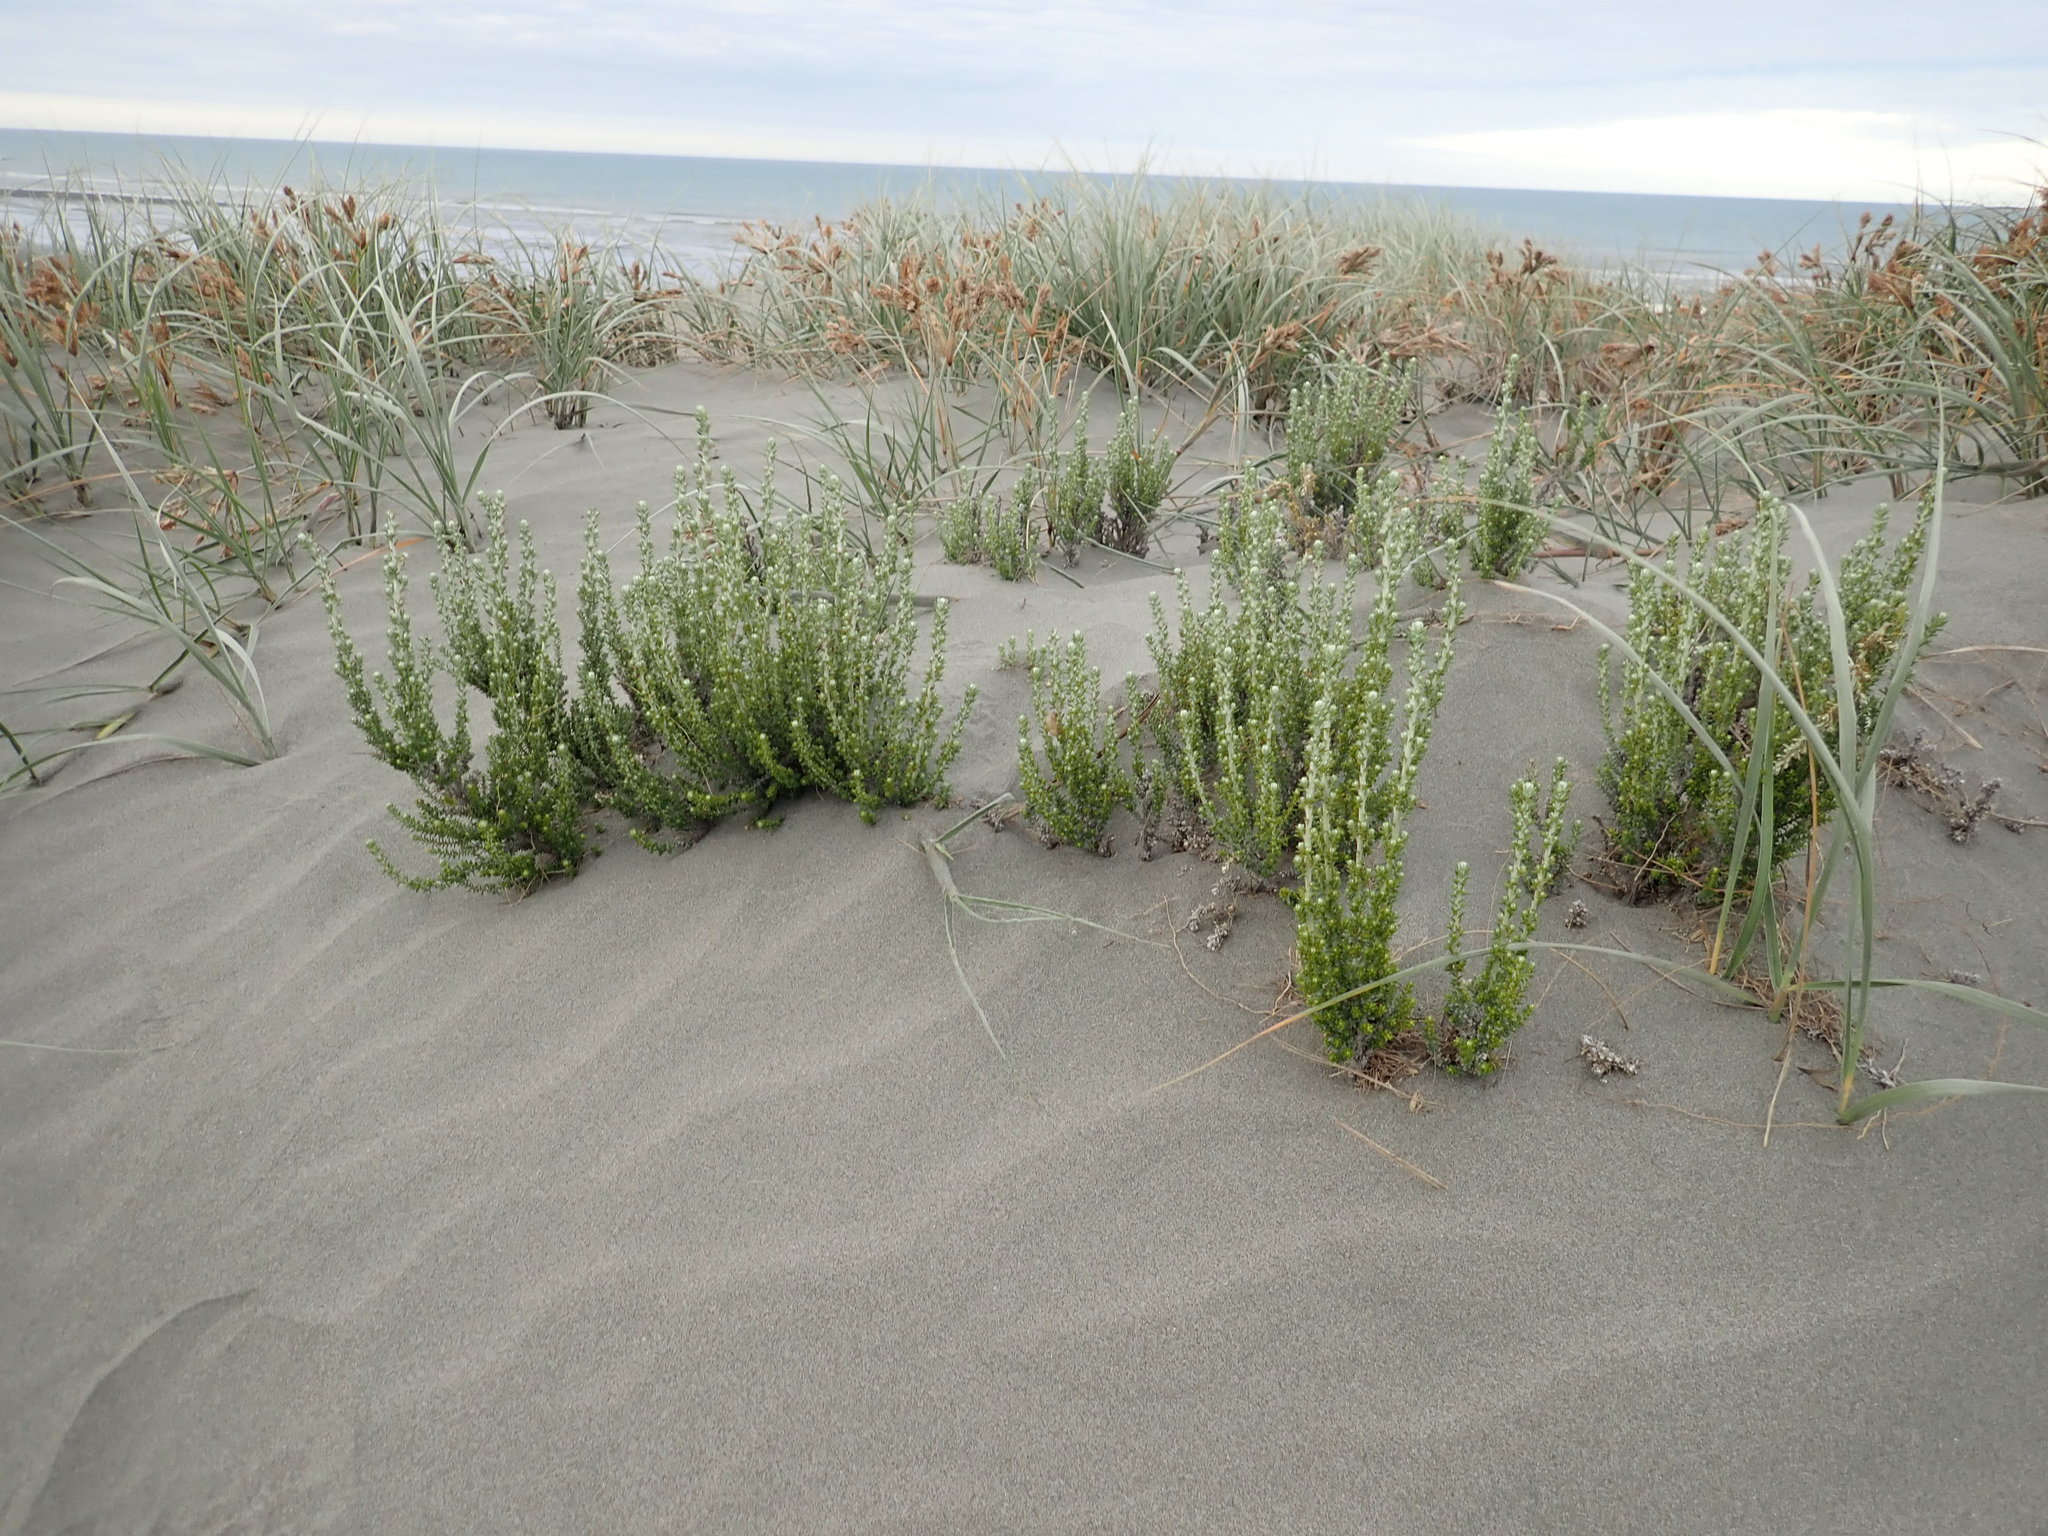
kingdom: Plantae
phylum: Tracheophyta
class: Magnoliopsida
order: Asterales
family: Asteraceae
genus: Ozothamnus
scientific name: Ozothamnus leptophyllus
